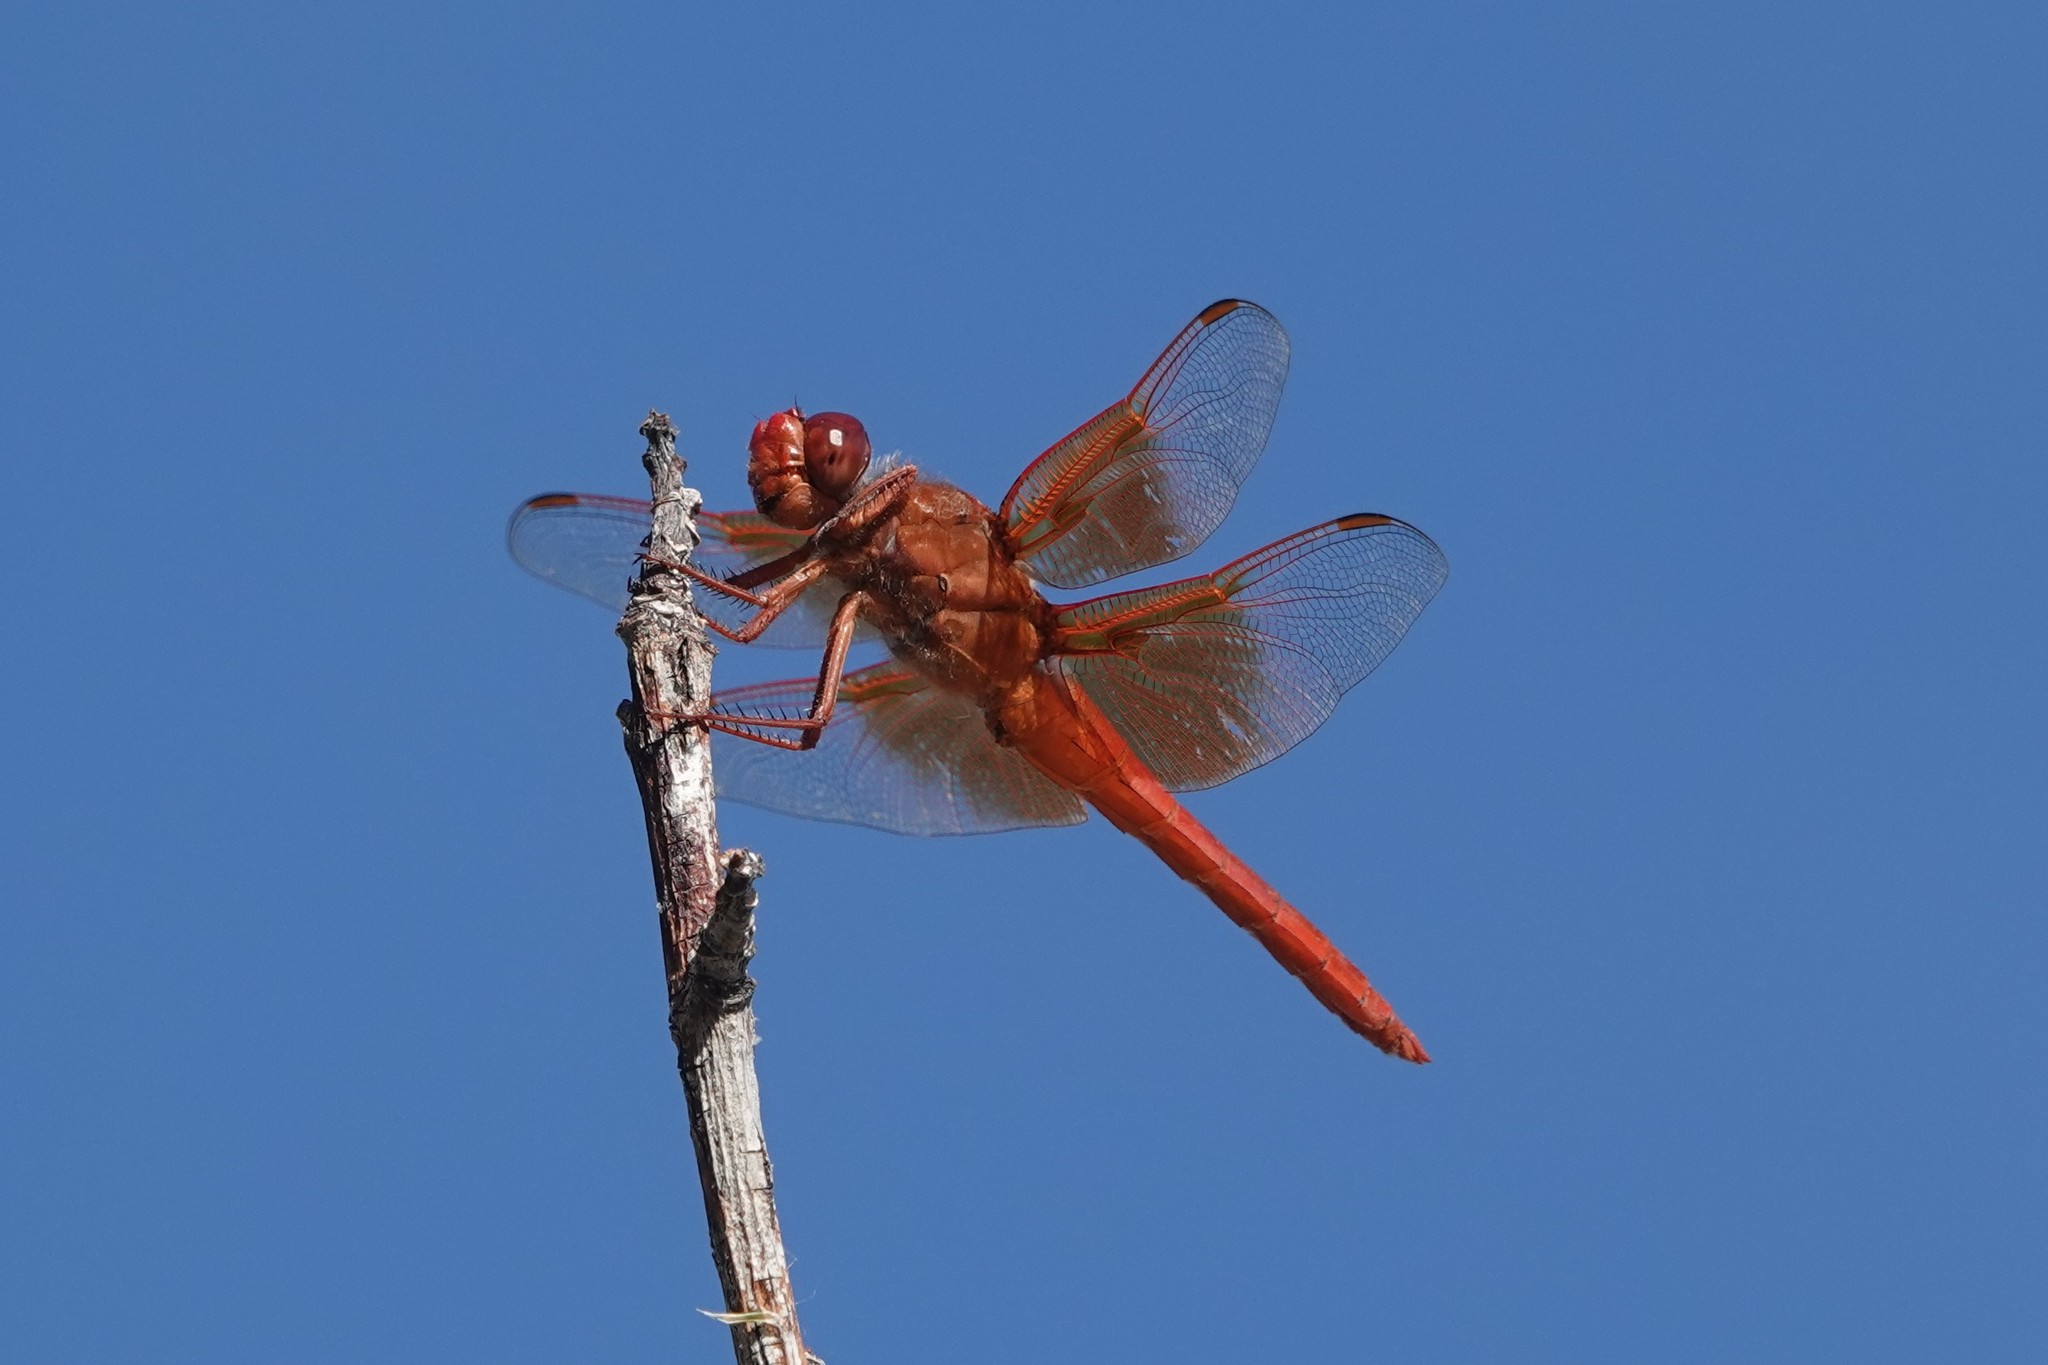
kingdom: Animalia
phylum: Arthropoda
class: Insecta
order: Odonata
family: Libellulidae
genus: Libellula
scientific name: Libellula saturata
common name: Flame skimmer
